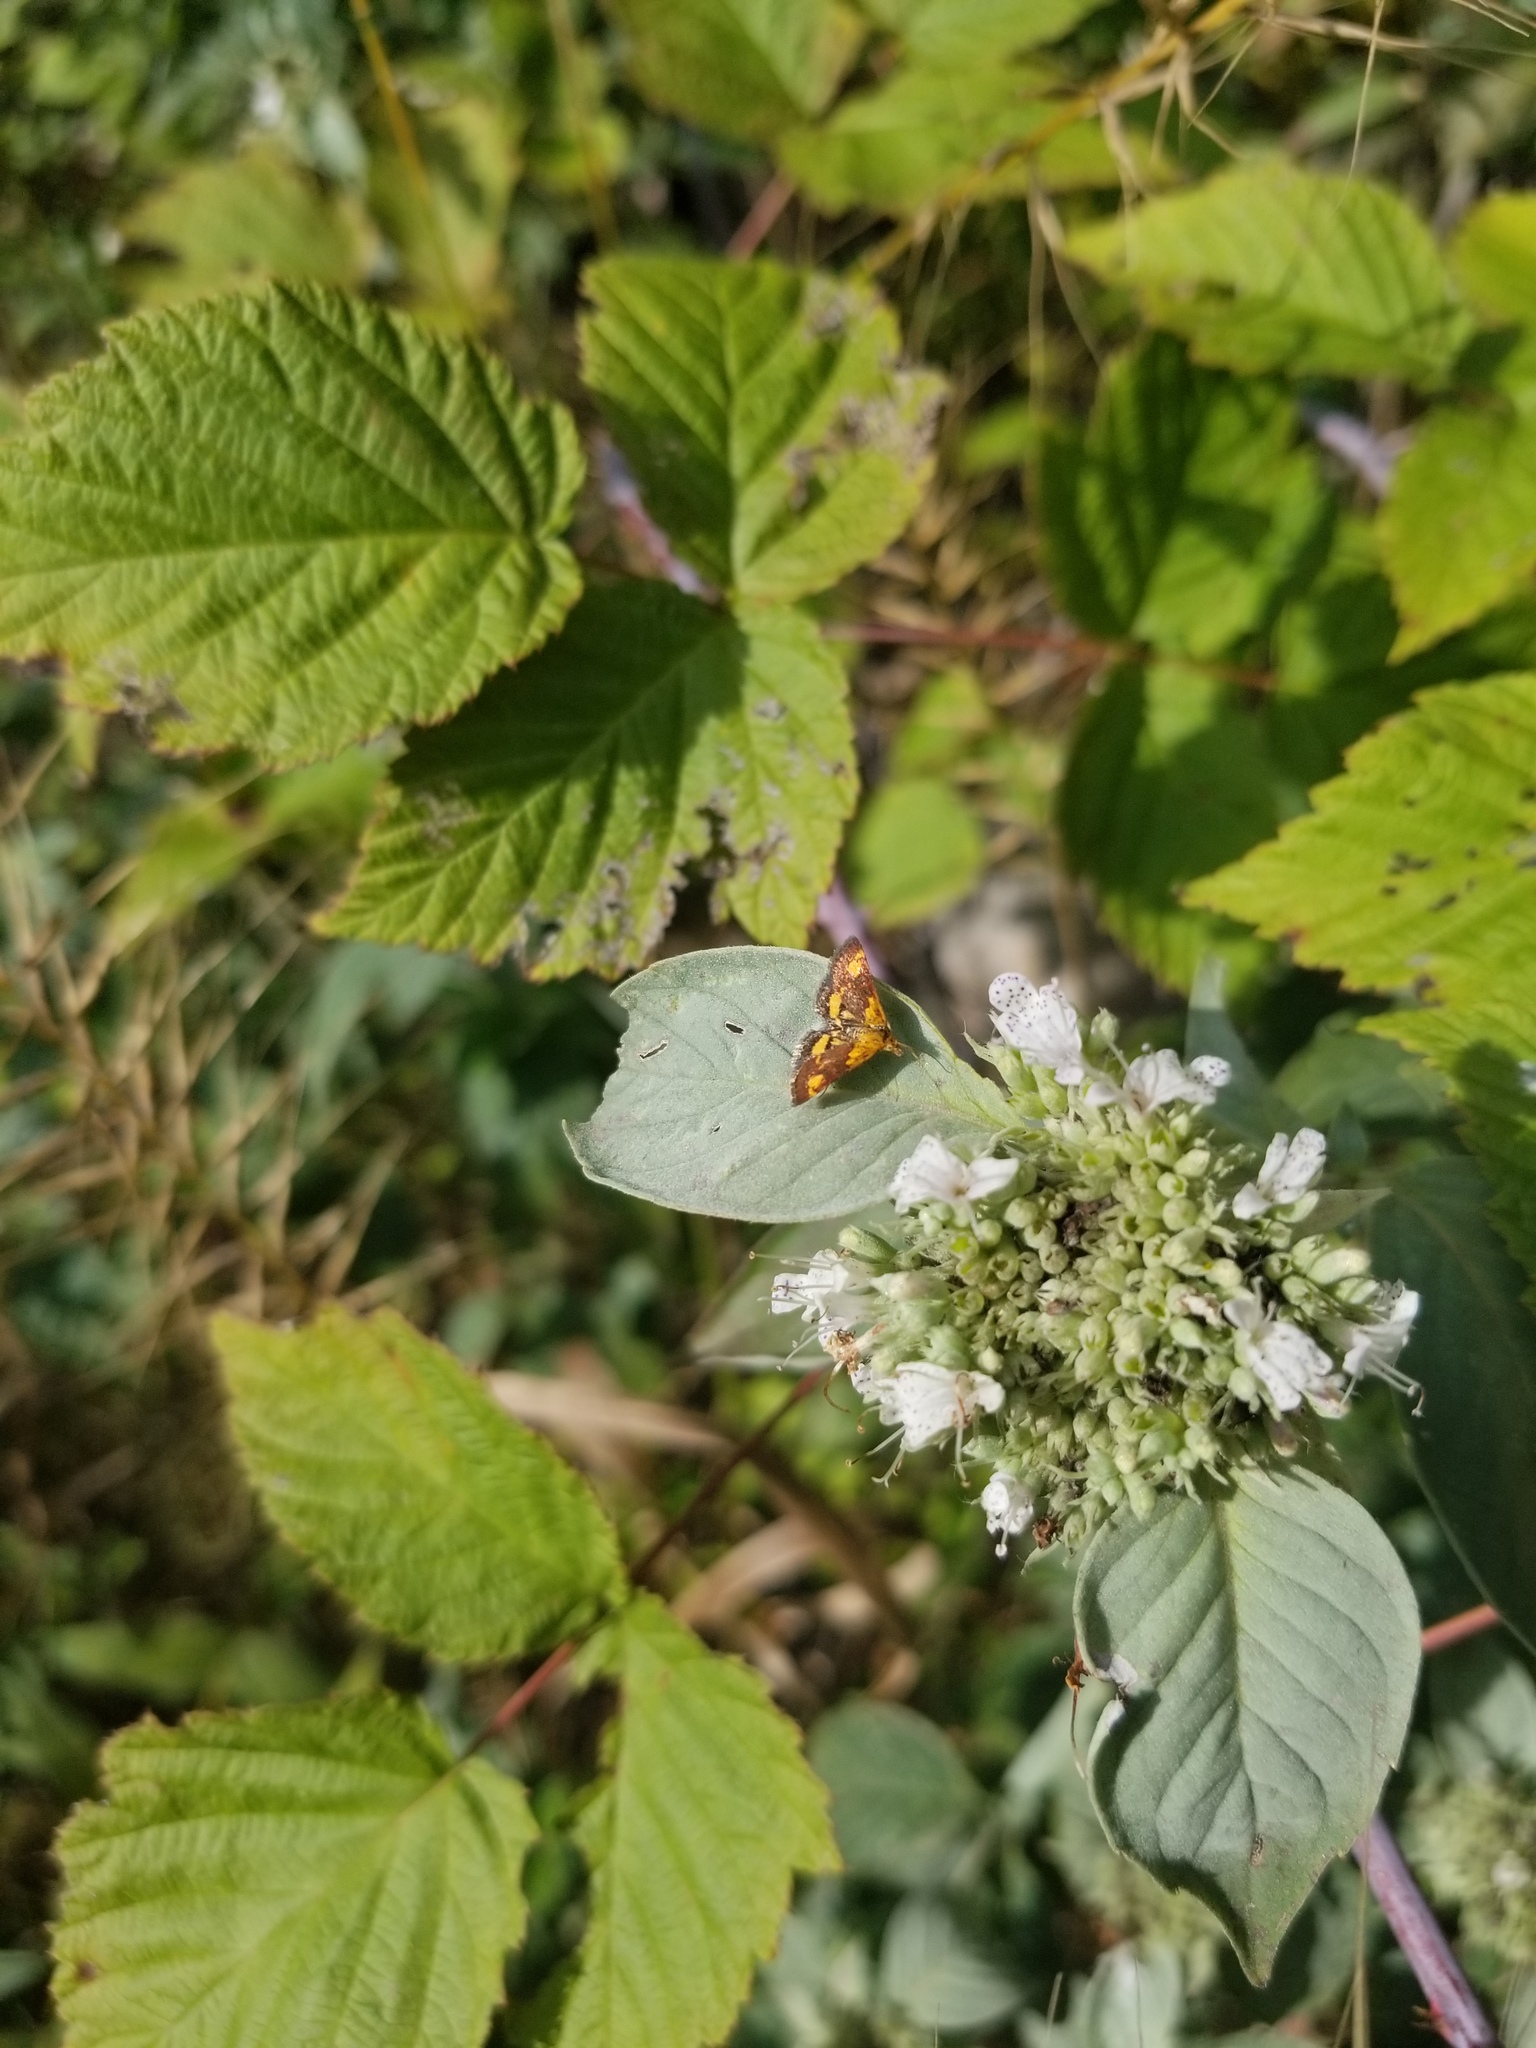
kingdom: Animalia
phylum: Arthropoda
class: Insecta
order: Lepidoptera
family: Crambidae
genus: Pyrausta
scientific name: Pyrausta orphisalis
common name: Orange mint moth
